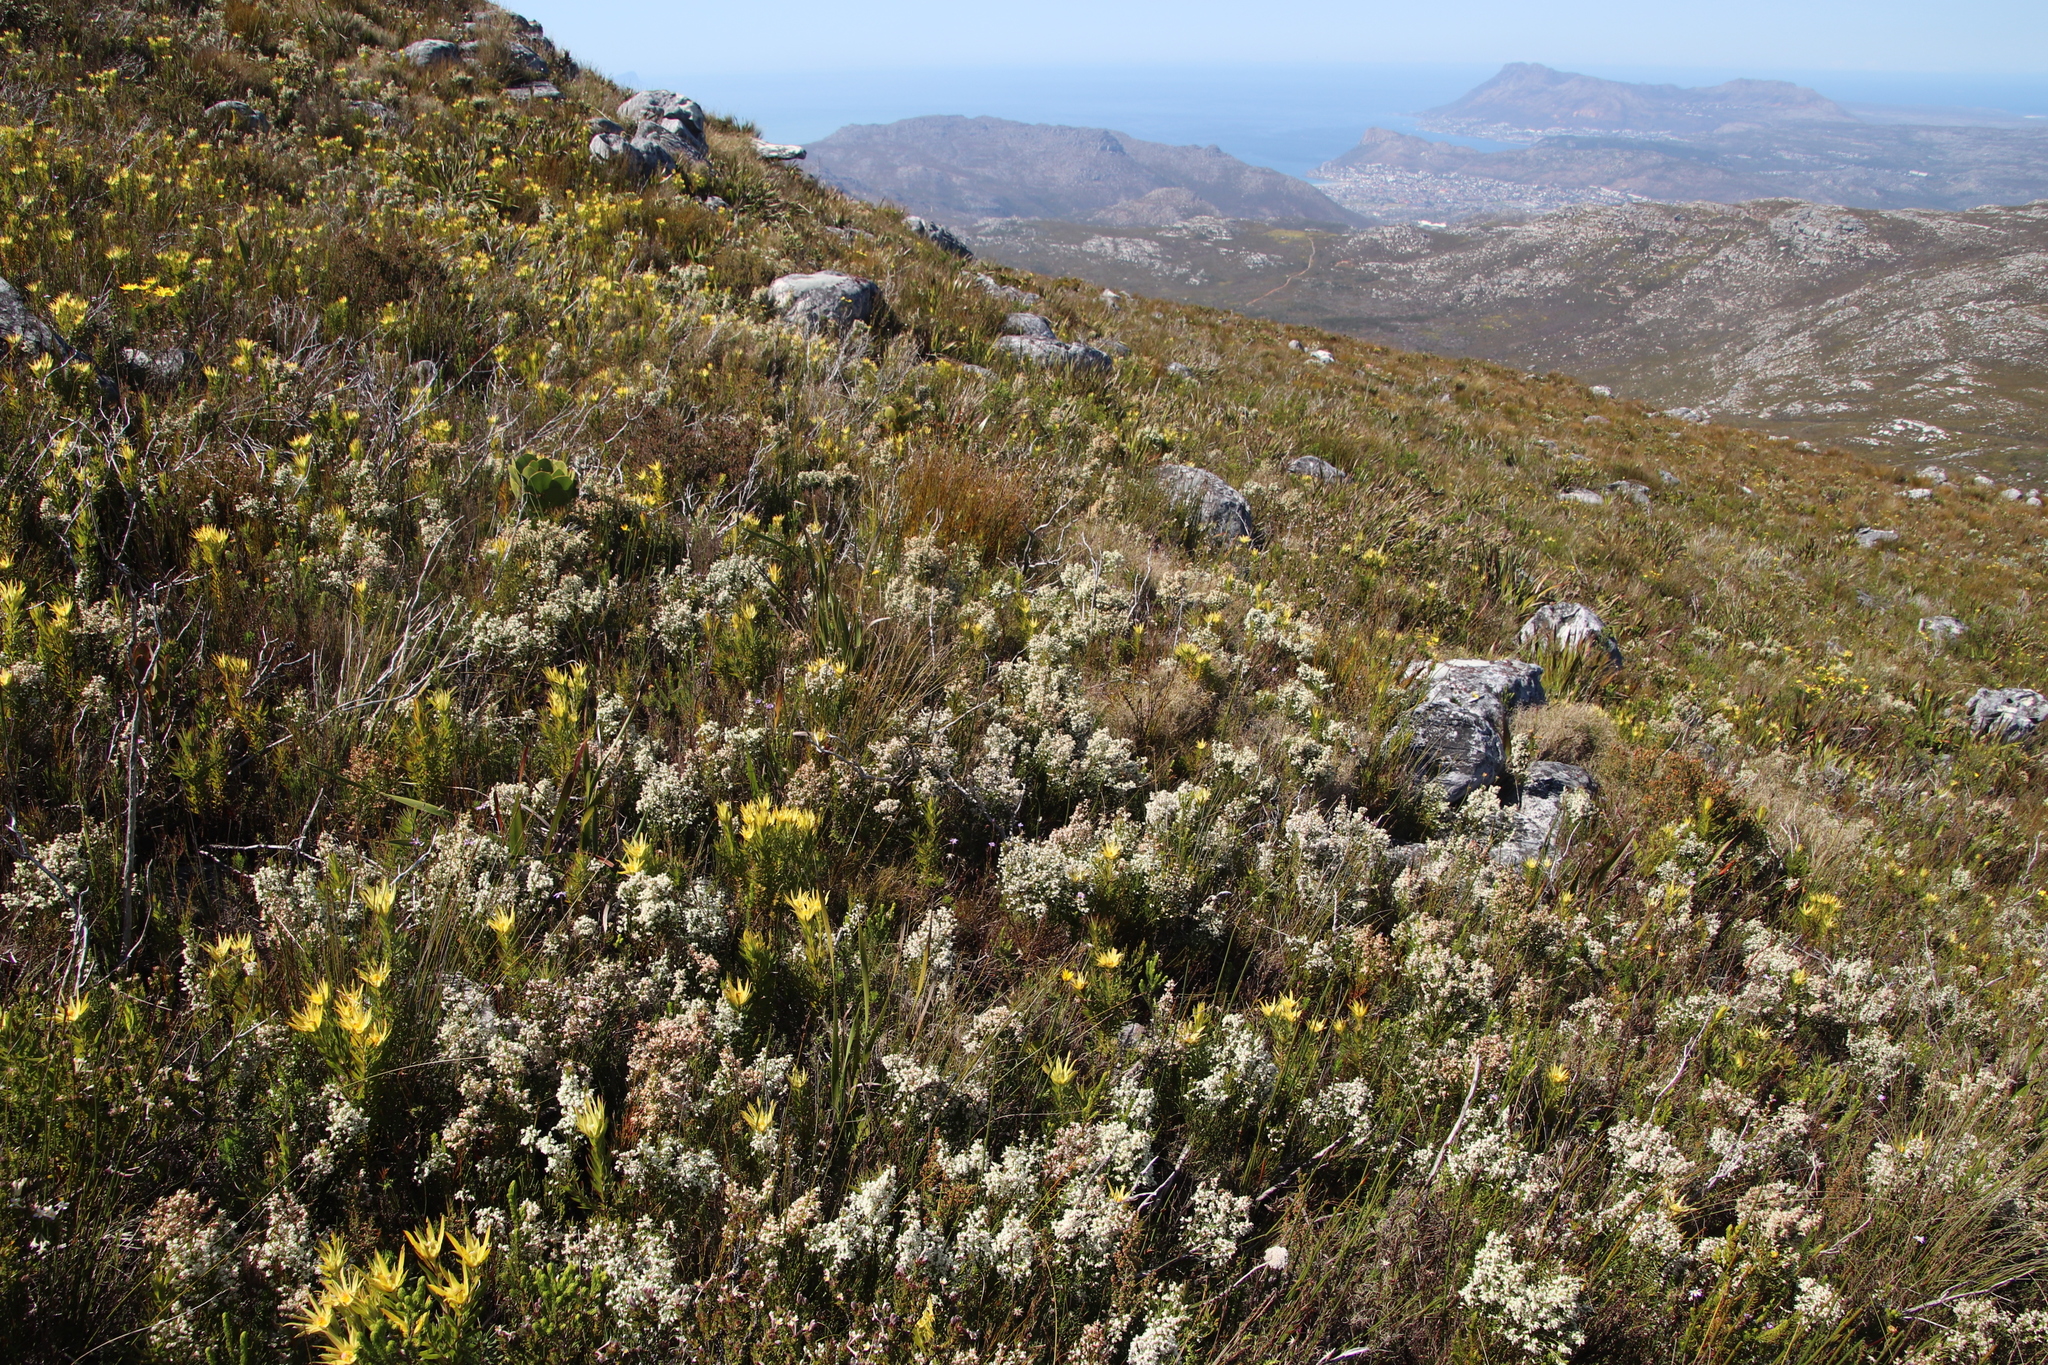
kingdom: Plantae
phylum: Tracheophyta
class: Magnoliopsida
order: Ericales
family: Ericaceae
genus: Erica
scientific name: Erica lutea
